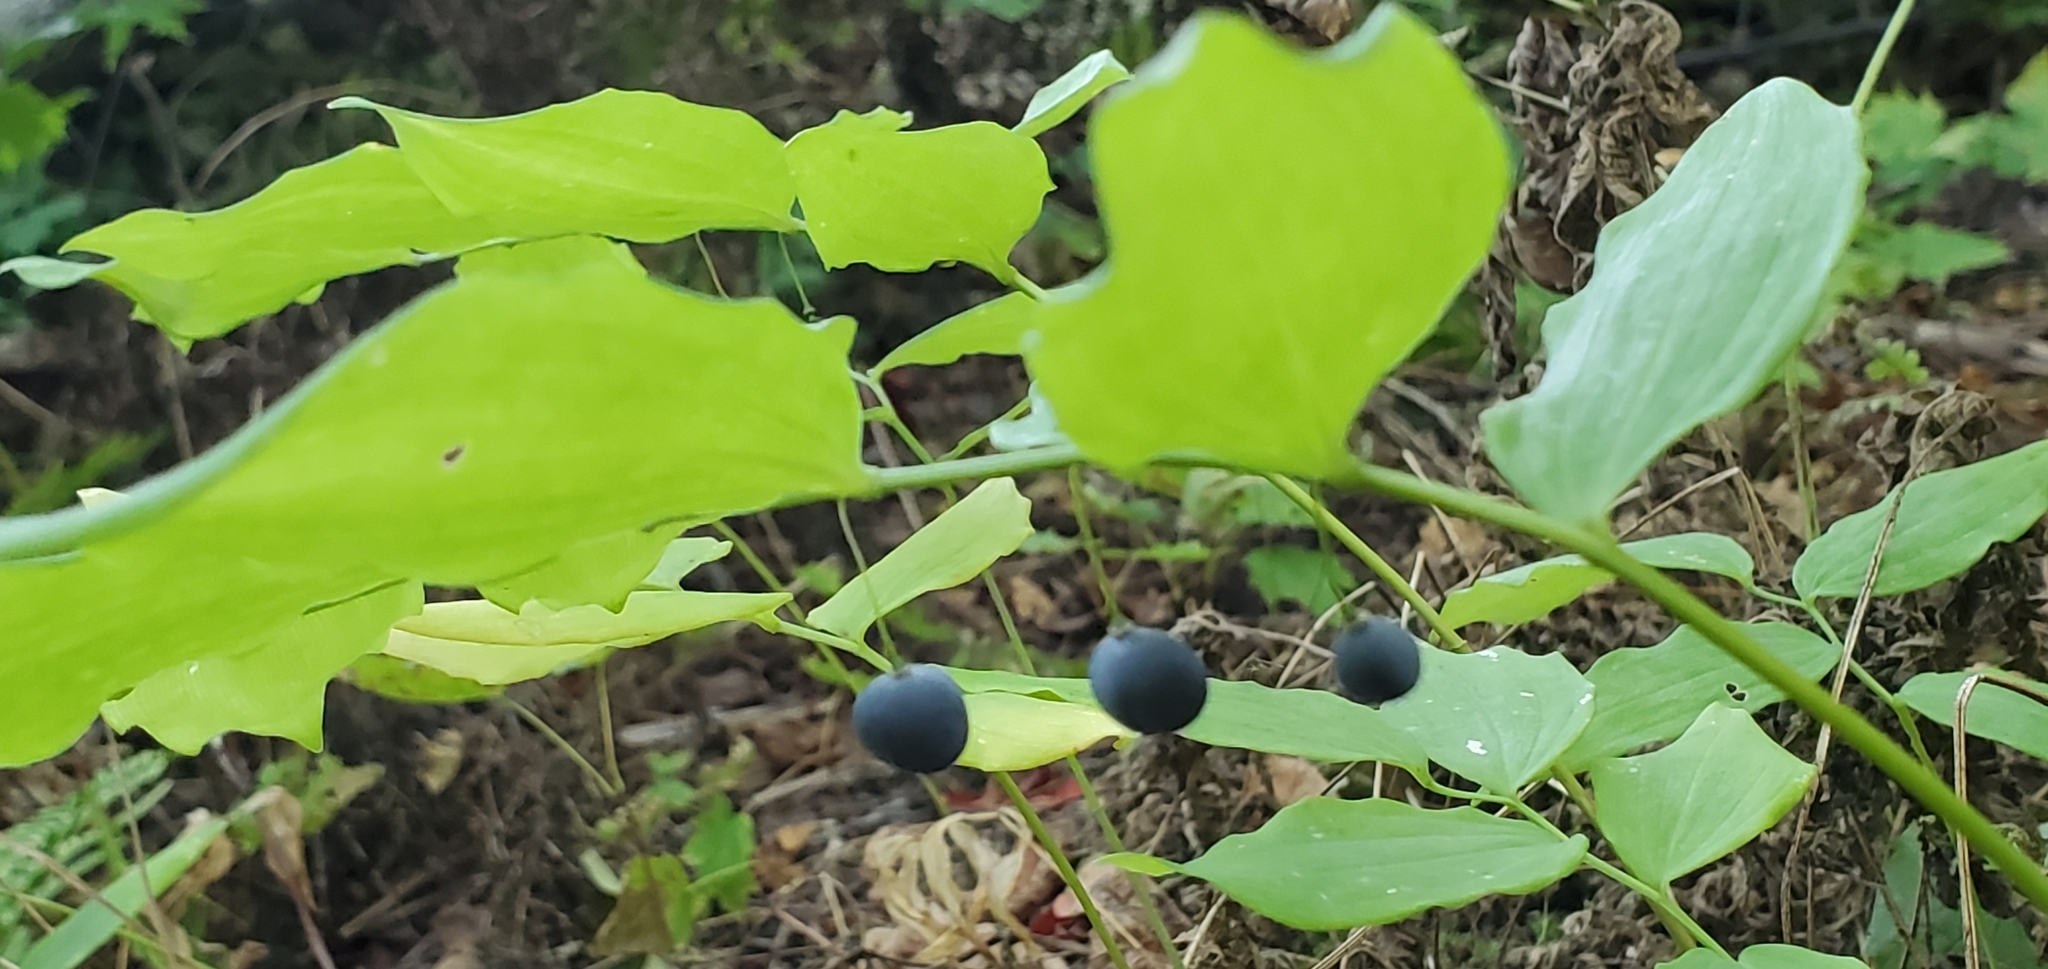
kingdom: Plantae
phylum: Tracheophyta
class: Liliopsida
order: Asparagales
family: Asparagaceae
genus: Polygonatum
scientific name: Polygonatum pubescens
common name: Downy solomon's seal
